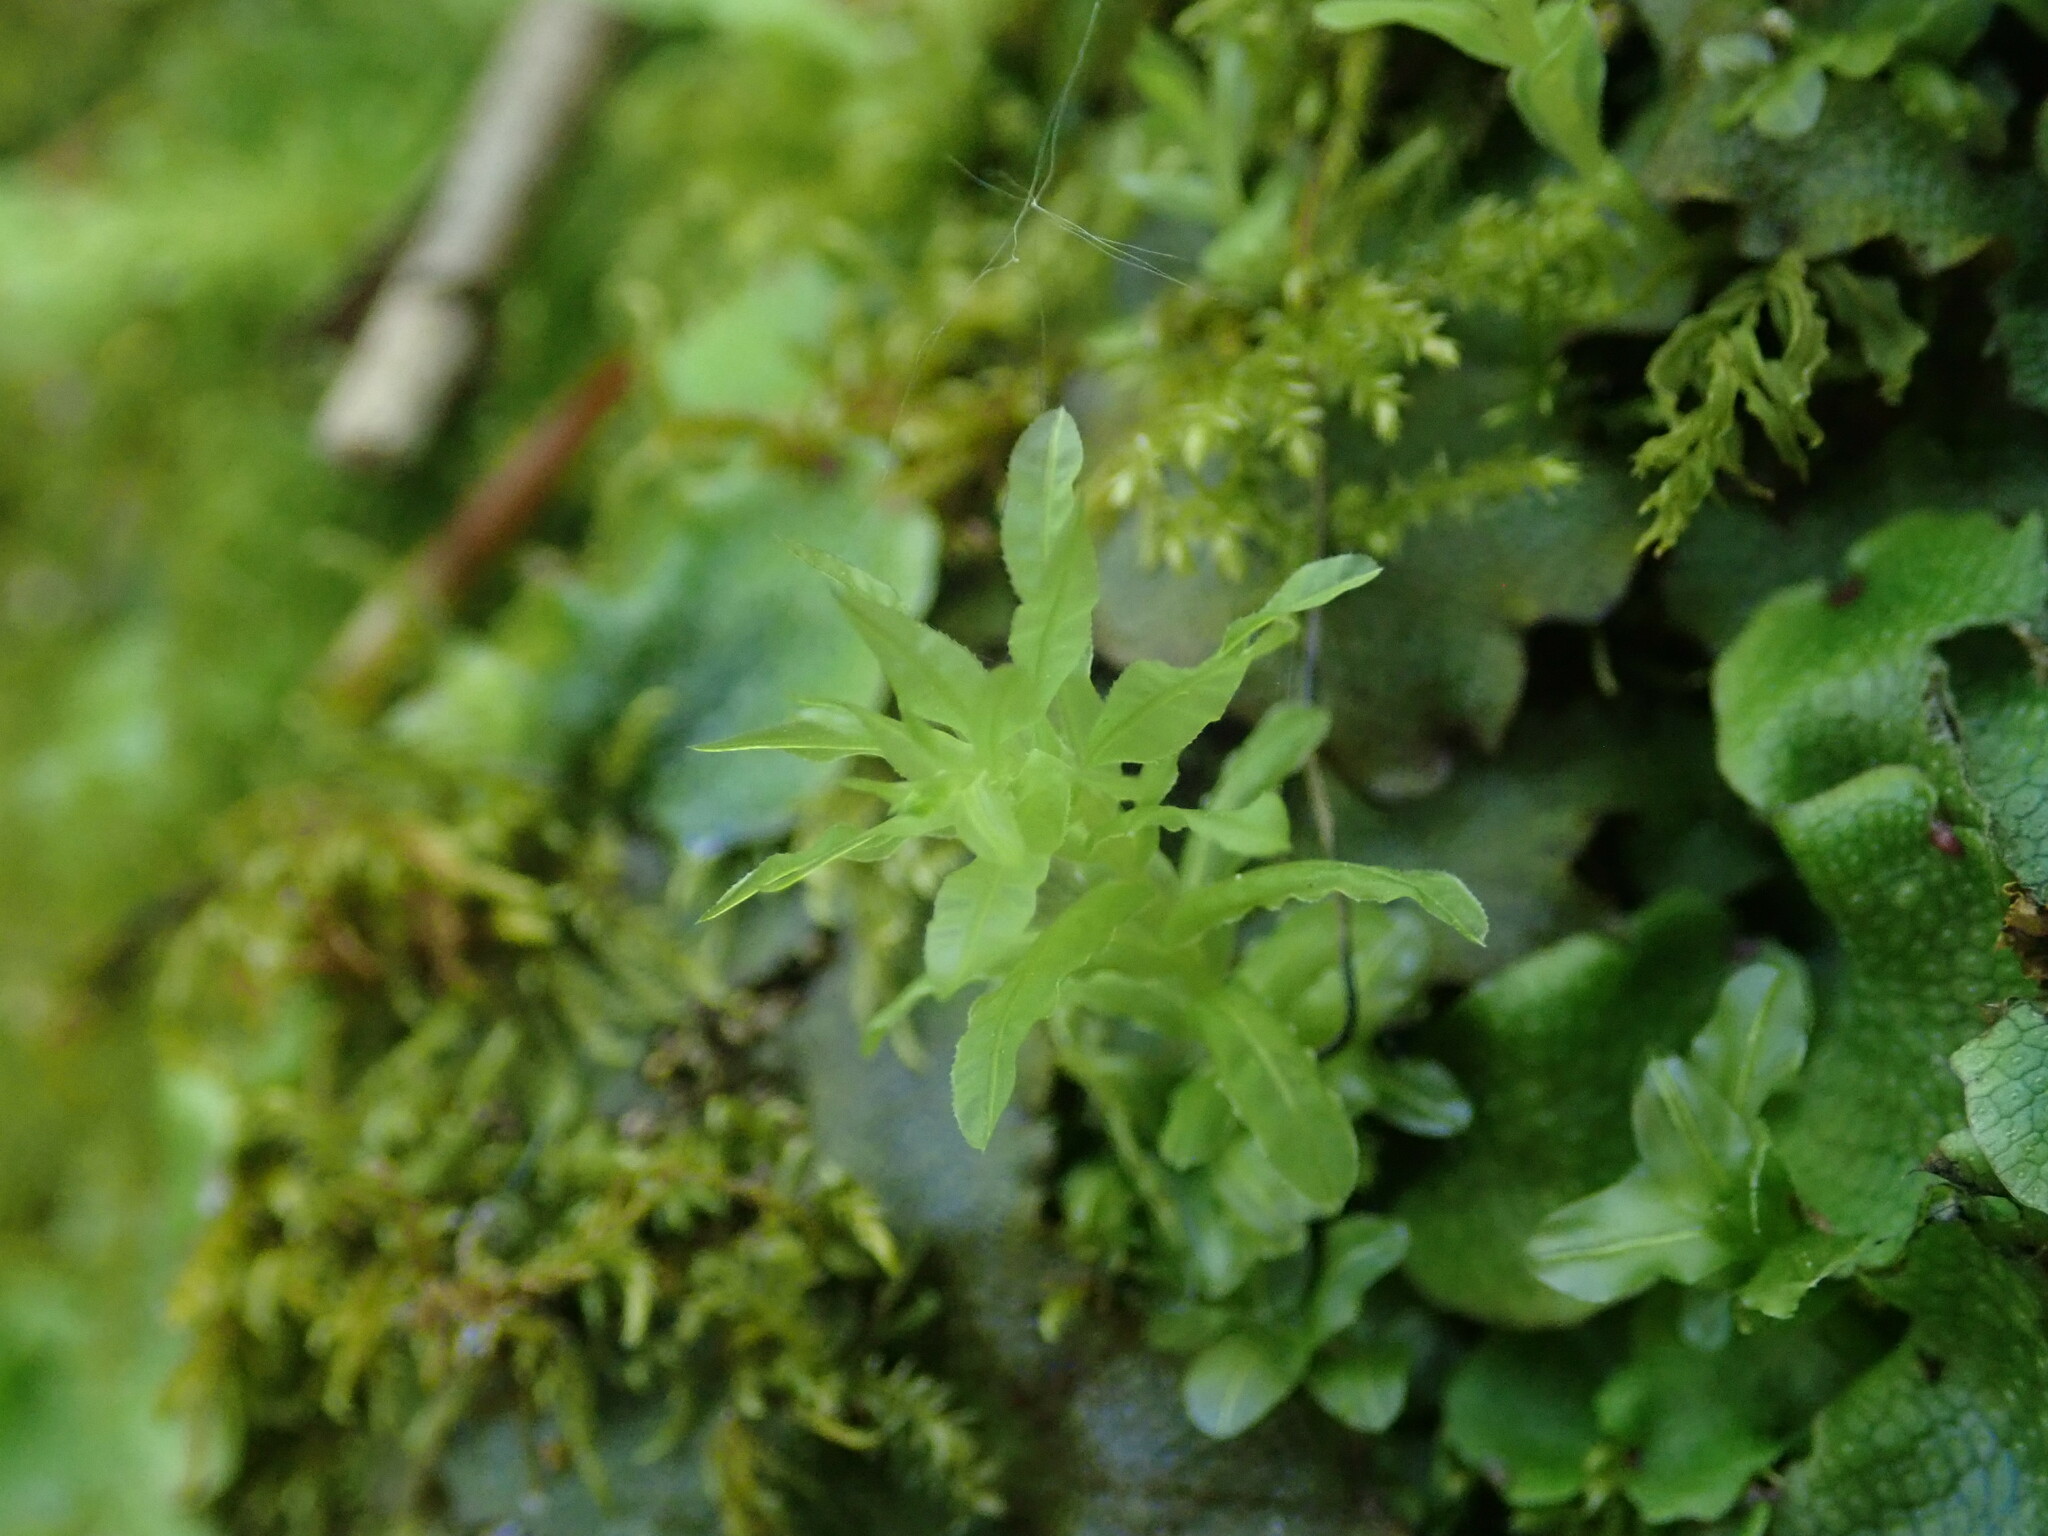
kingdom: Plantae
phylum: Bryophyta
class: Bryopsida
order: Bryales
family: Mniaceae
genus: Plagiomnium
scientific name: Plagiomnium undulatum
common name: Hart's-tongue thyme-moss
